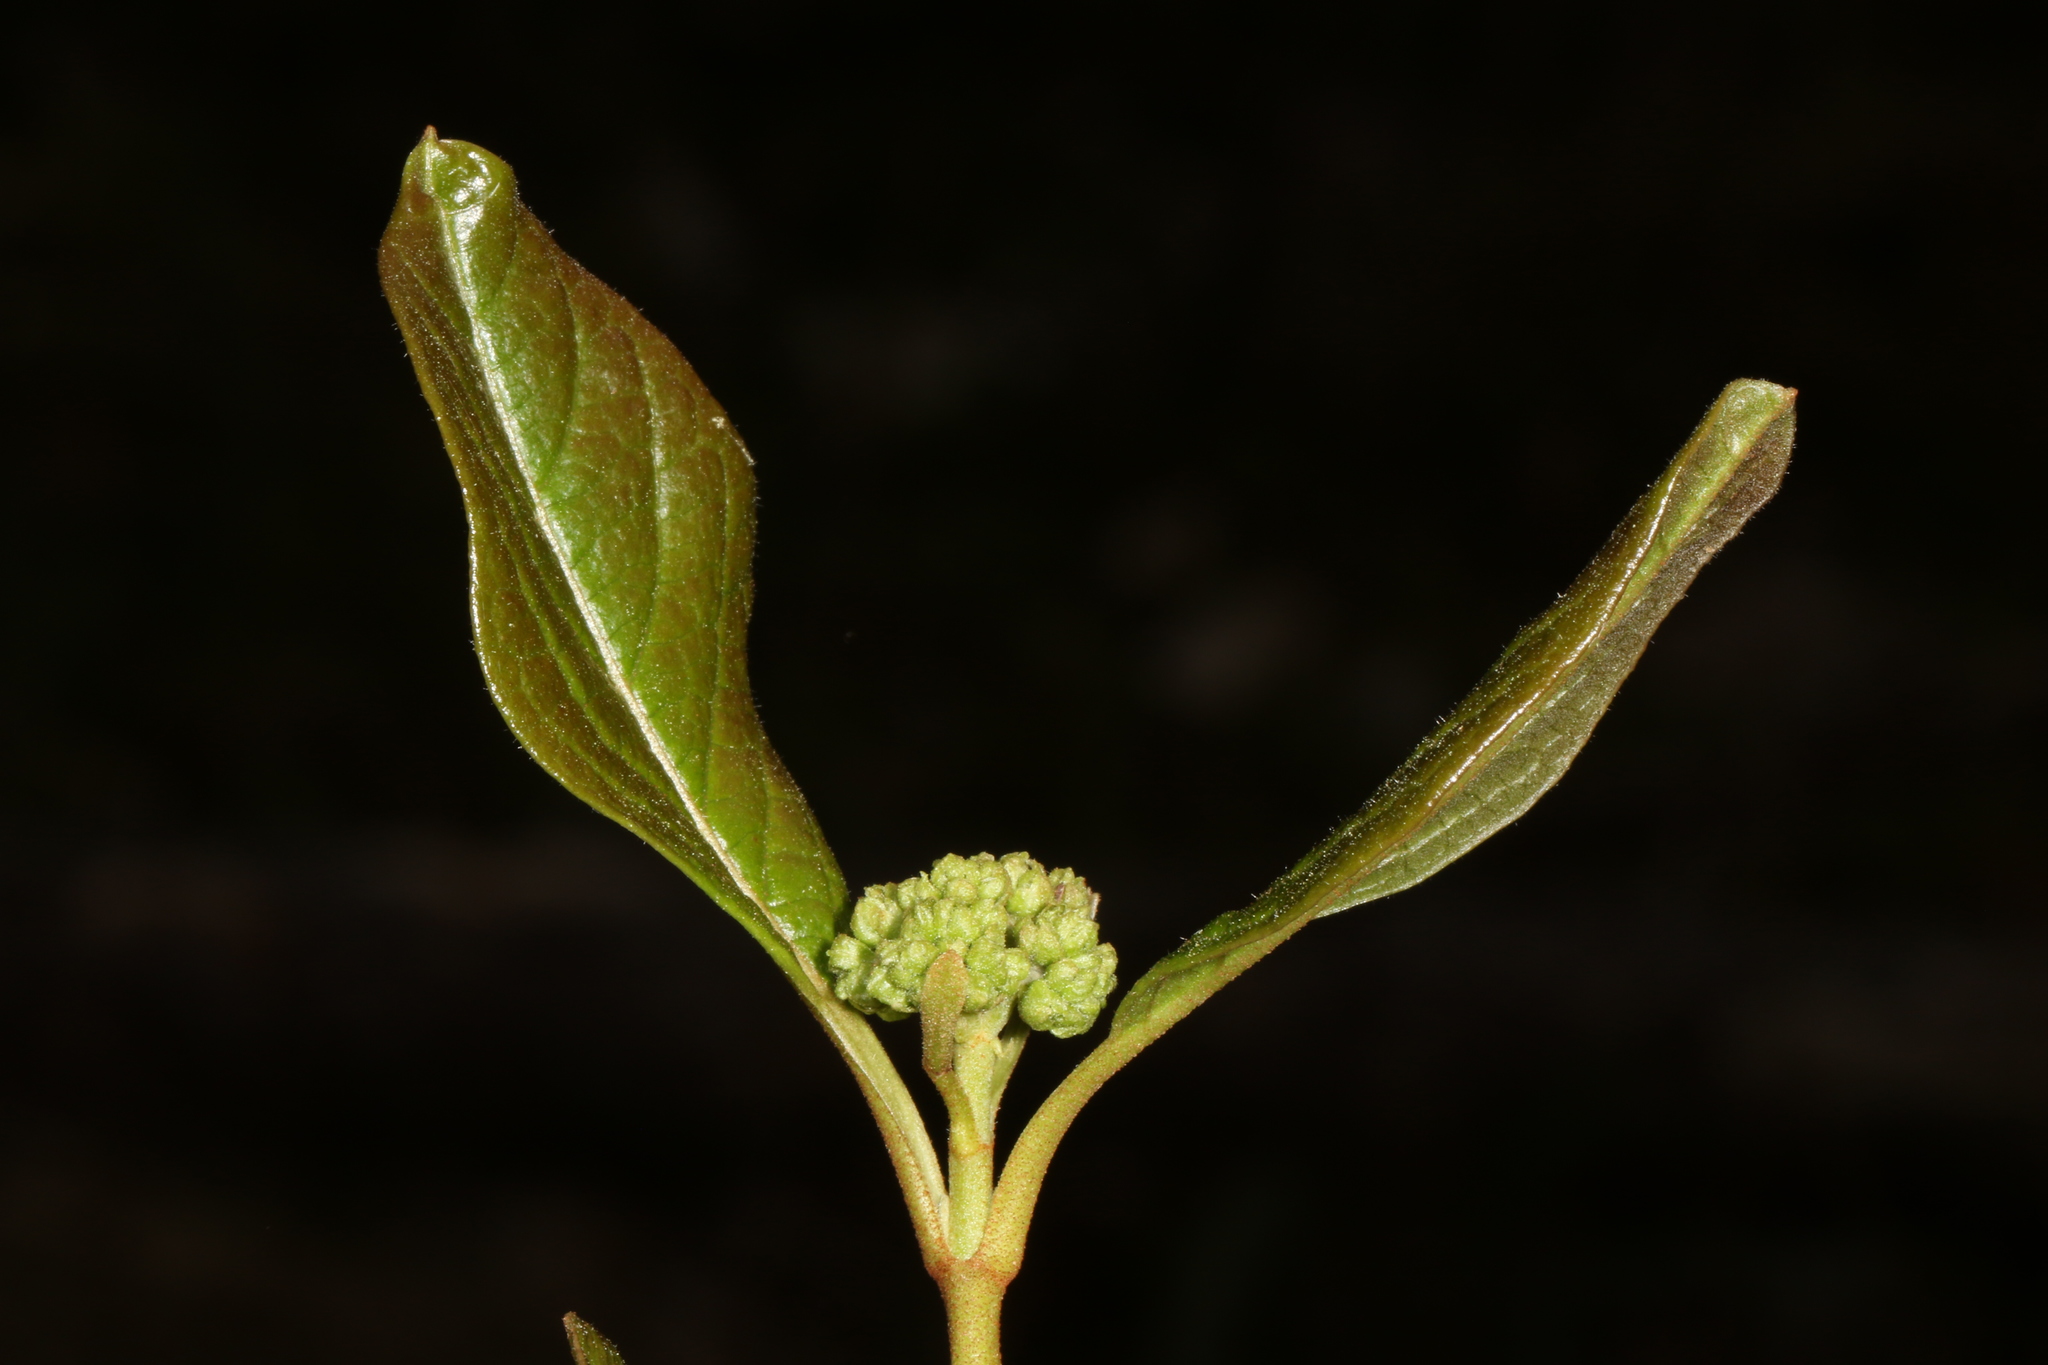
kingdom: Plantae
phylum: Tracheophyta
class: Magnoliopsida
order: Dipsacales
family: Viburnaceae
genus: Viburnum
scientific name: Viburnum nudum
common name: Possum haw
